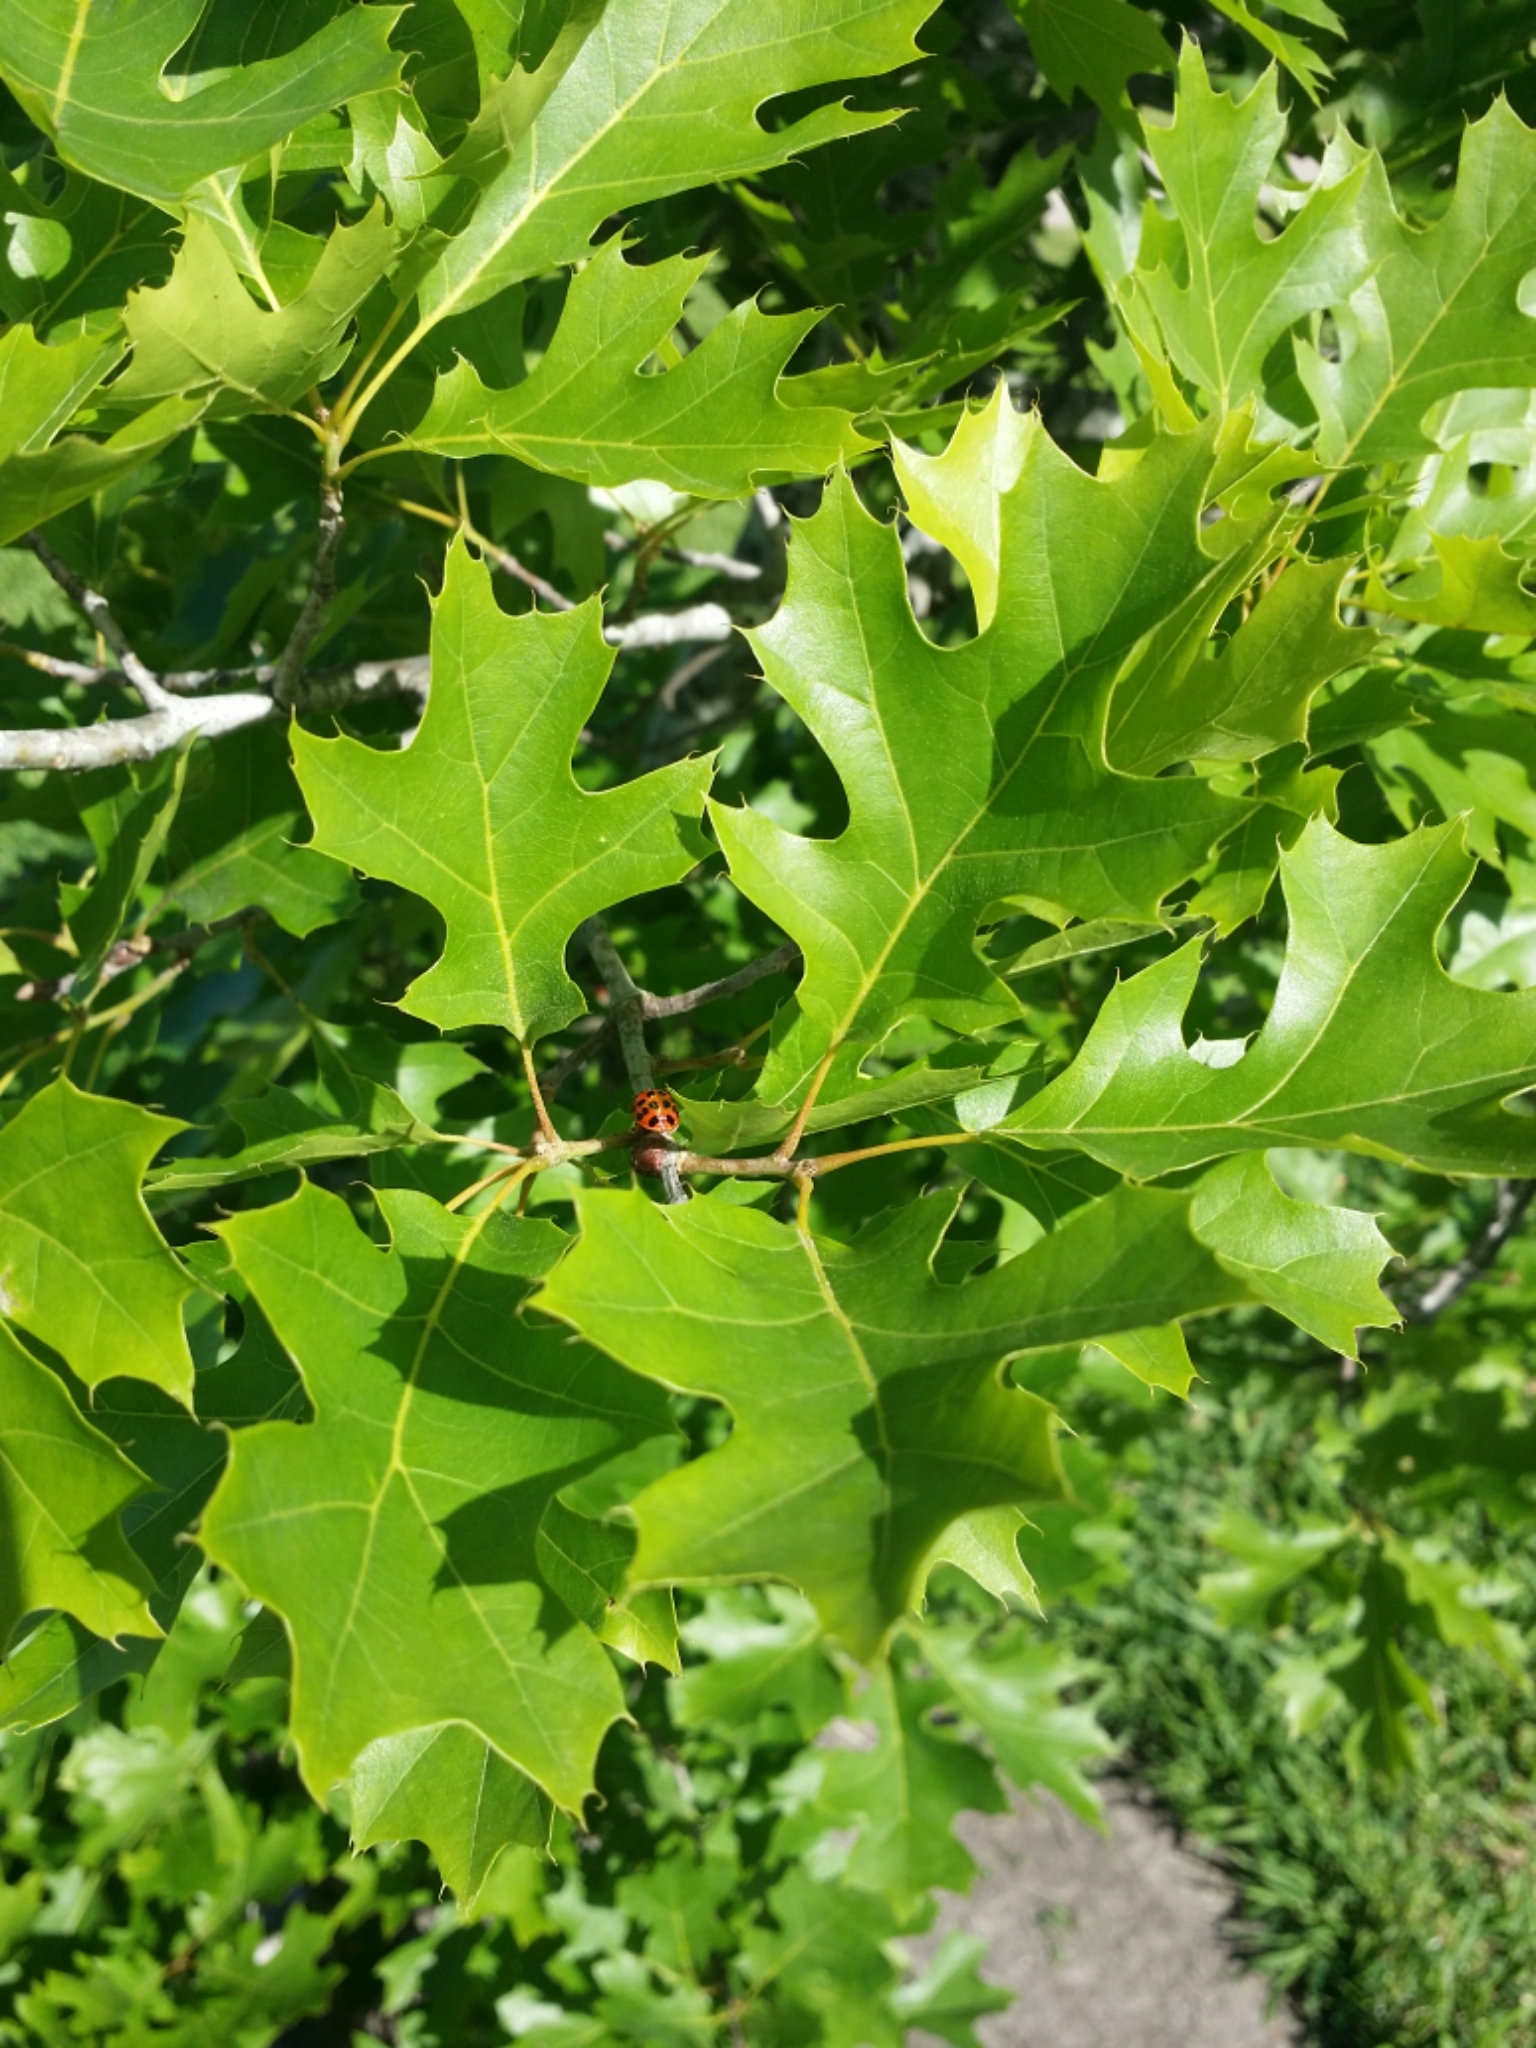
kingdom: Animalia
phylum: Arthropoda
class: Insecta
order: Coleoptera
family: Coccinellidae
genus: Harmonia
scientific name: Harmonia axyridis
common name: Harlequin ladybird
